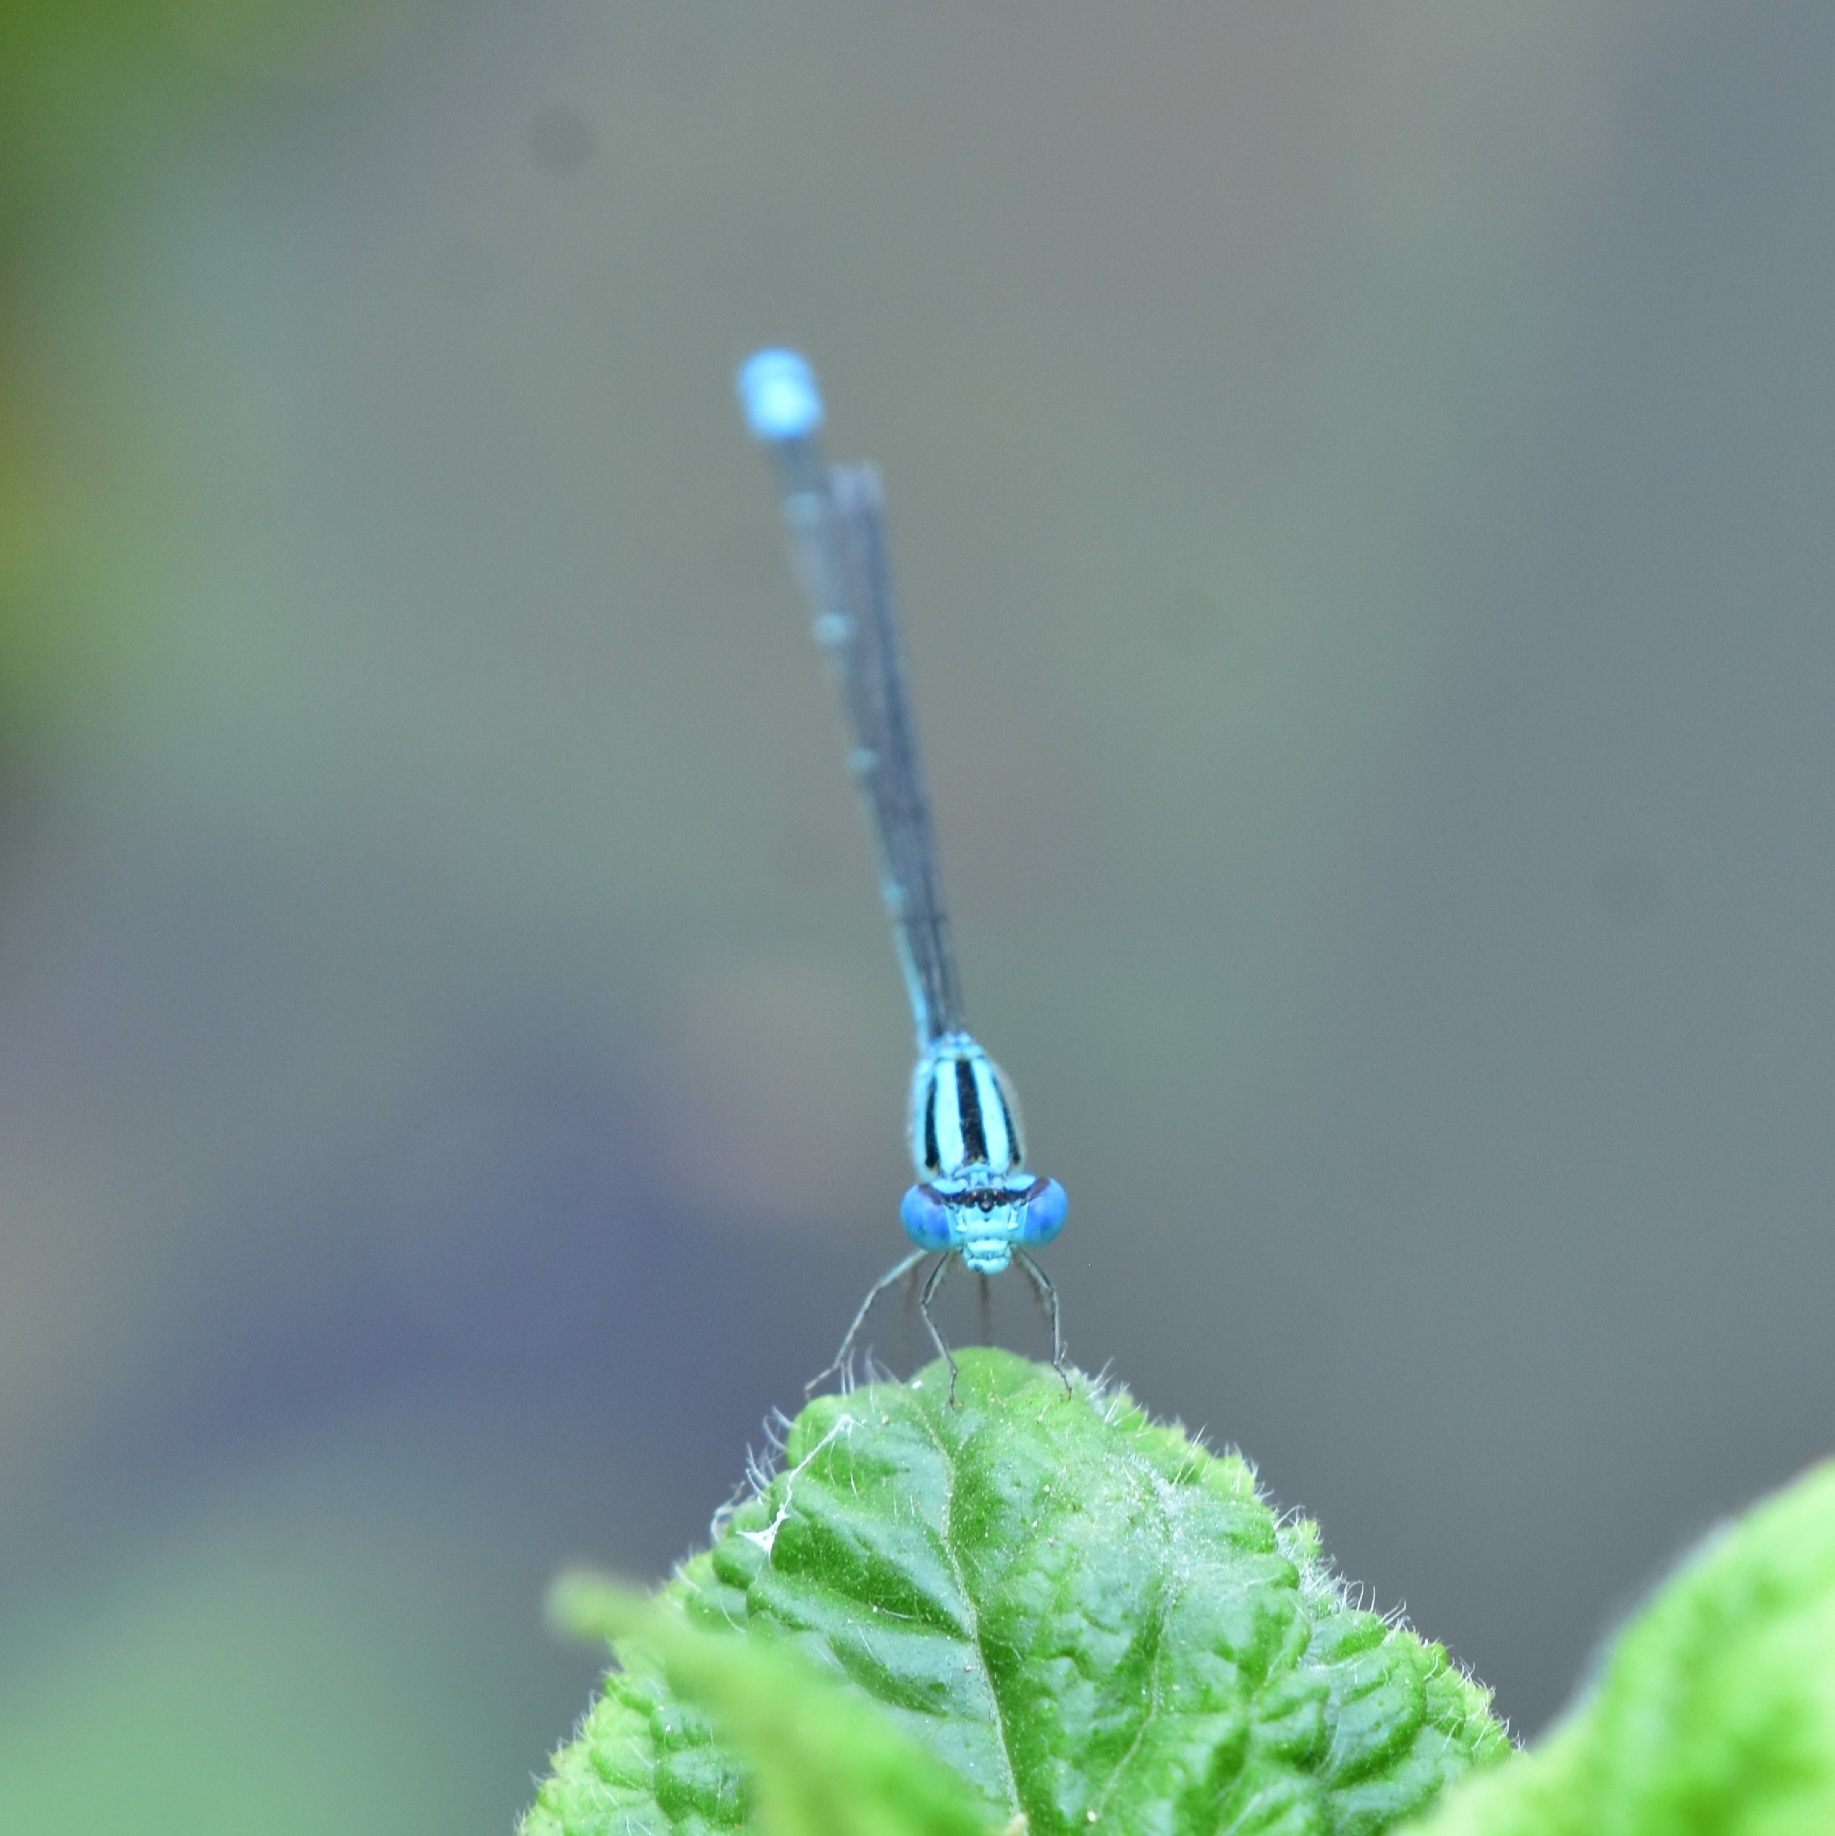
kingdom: Animalia
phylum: Arthropoda
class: Insecta
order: Odonata
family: Coenagrionidae
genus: Pseudagrion
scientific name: Pseudagrion microcephalum
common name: Blue riverdamsel
